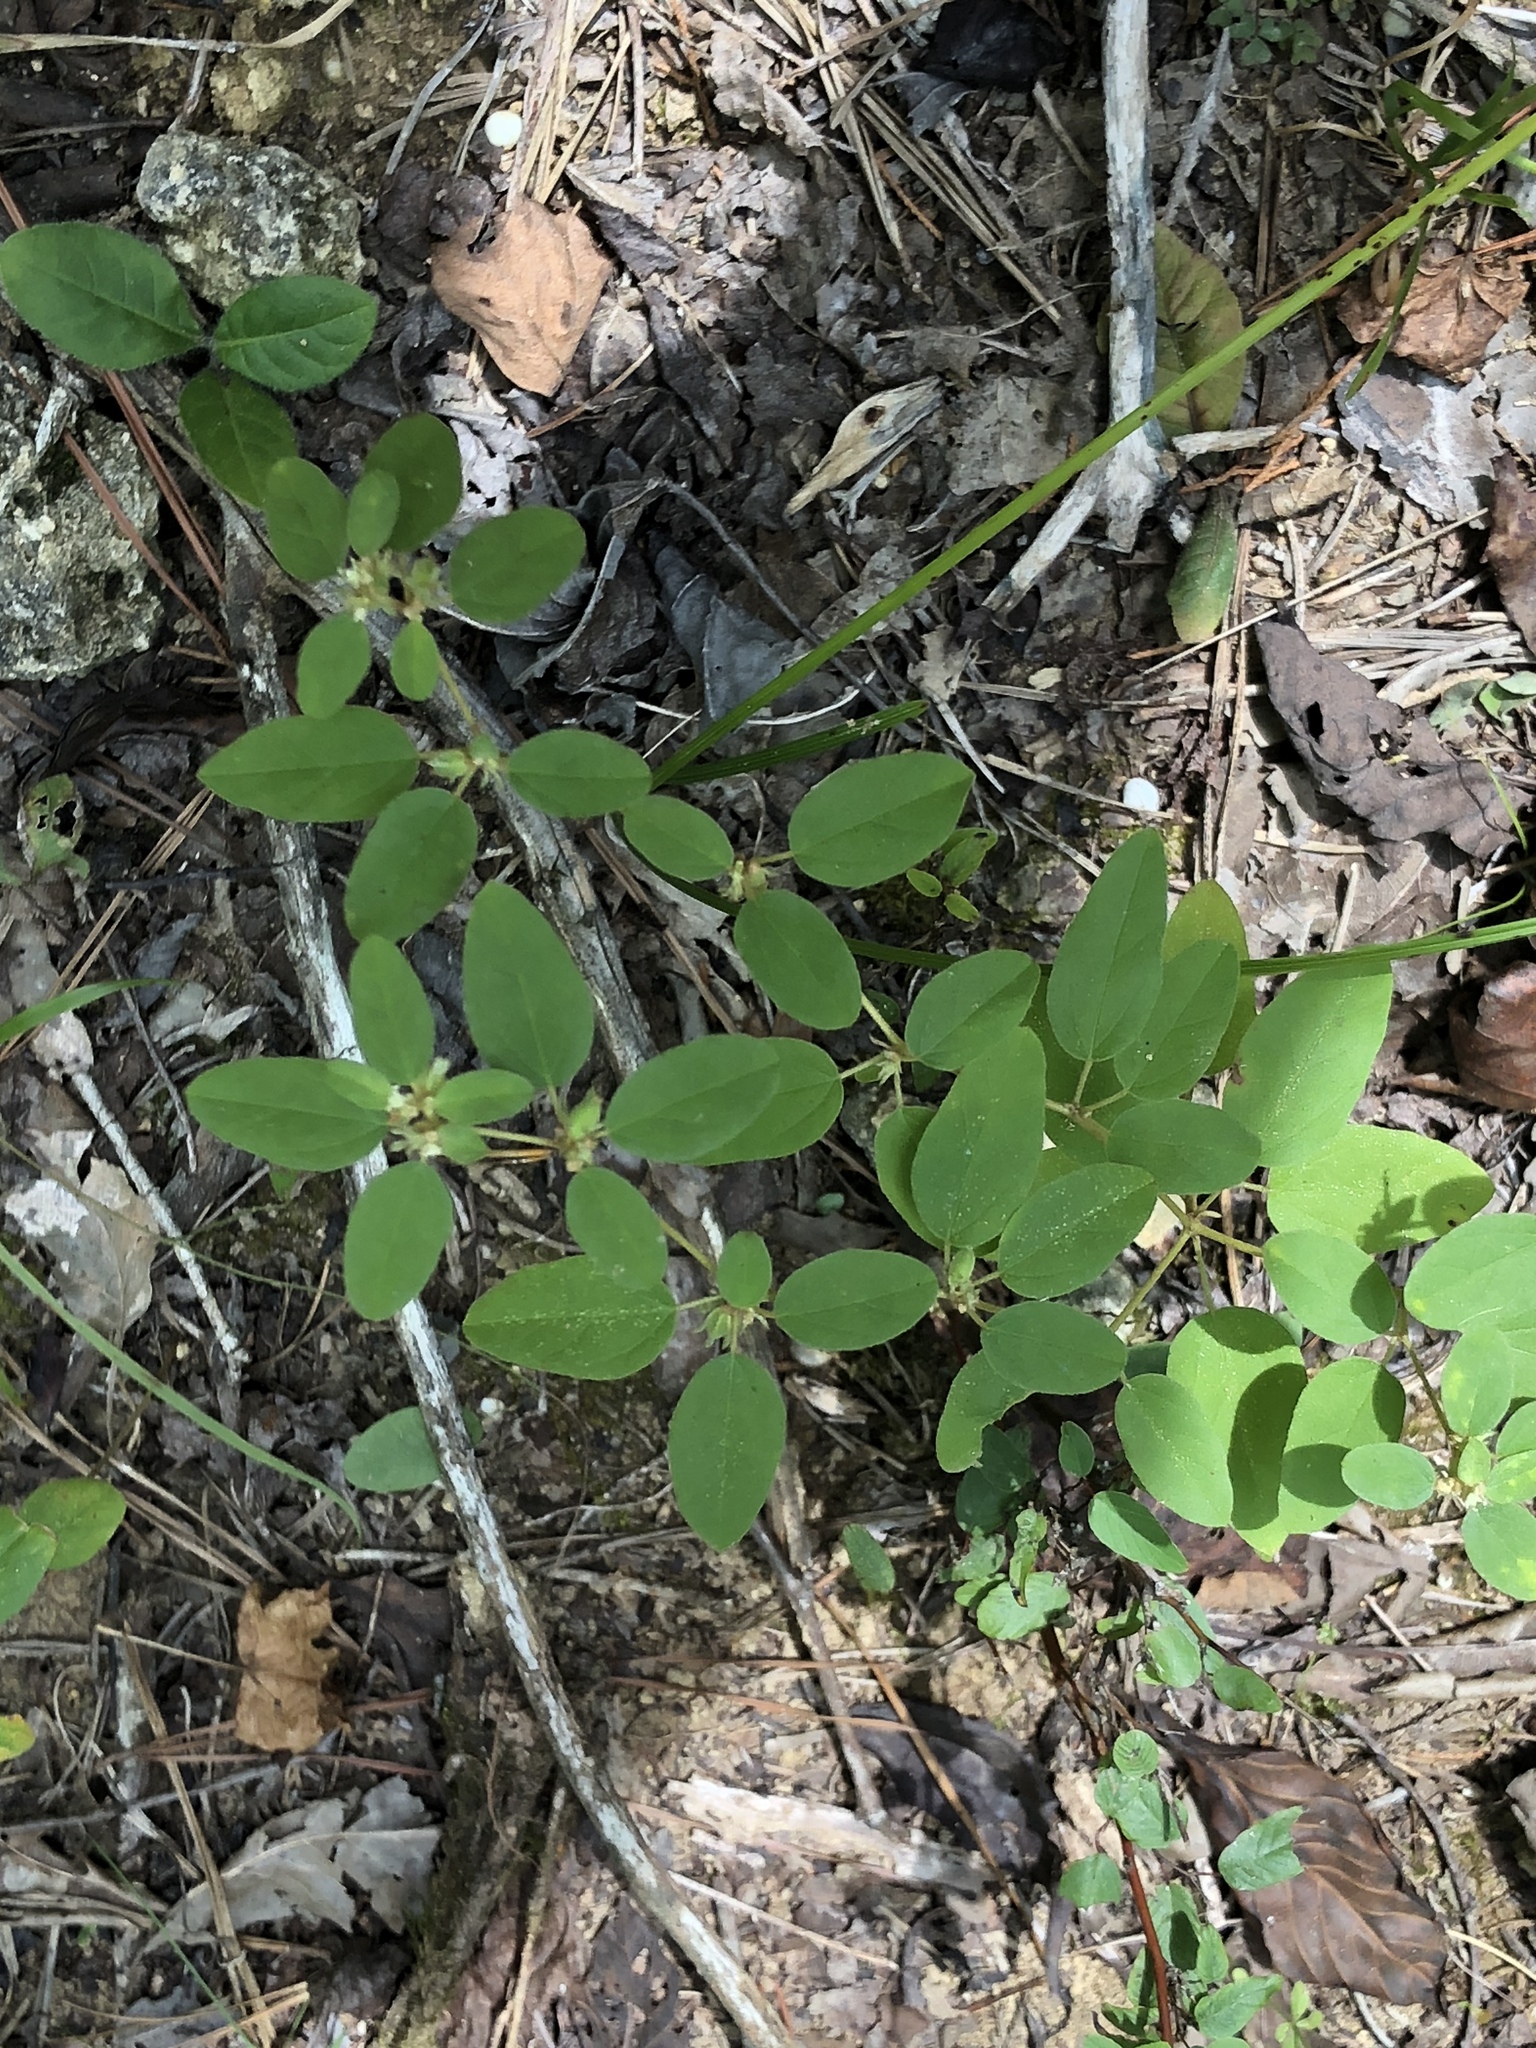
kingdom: Plantae
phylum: Tracheophyta
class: Magnoliopsida
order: Malpighiales
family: Euphorbiaceae
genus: Croton
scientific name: Croton monanthogynus
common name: One-seed croton
